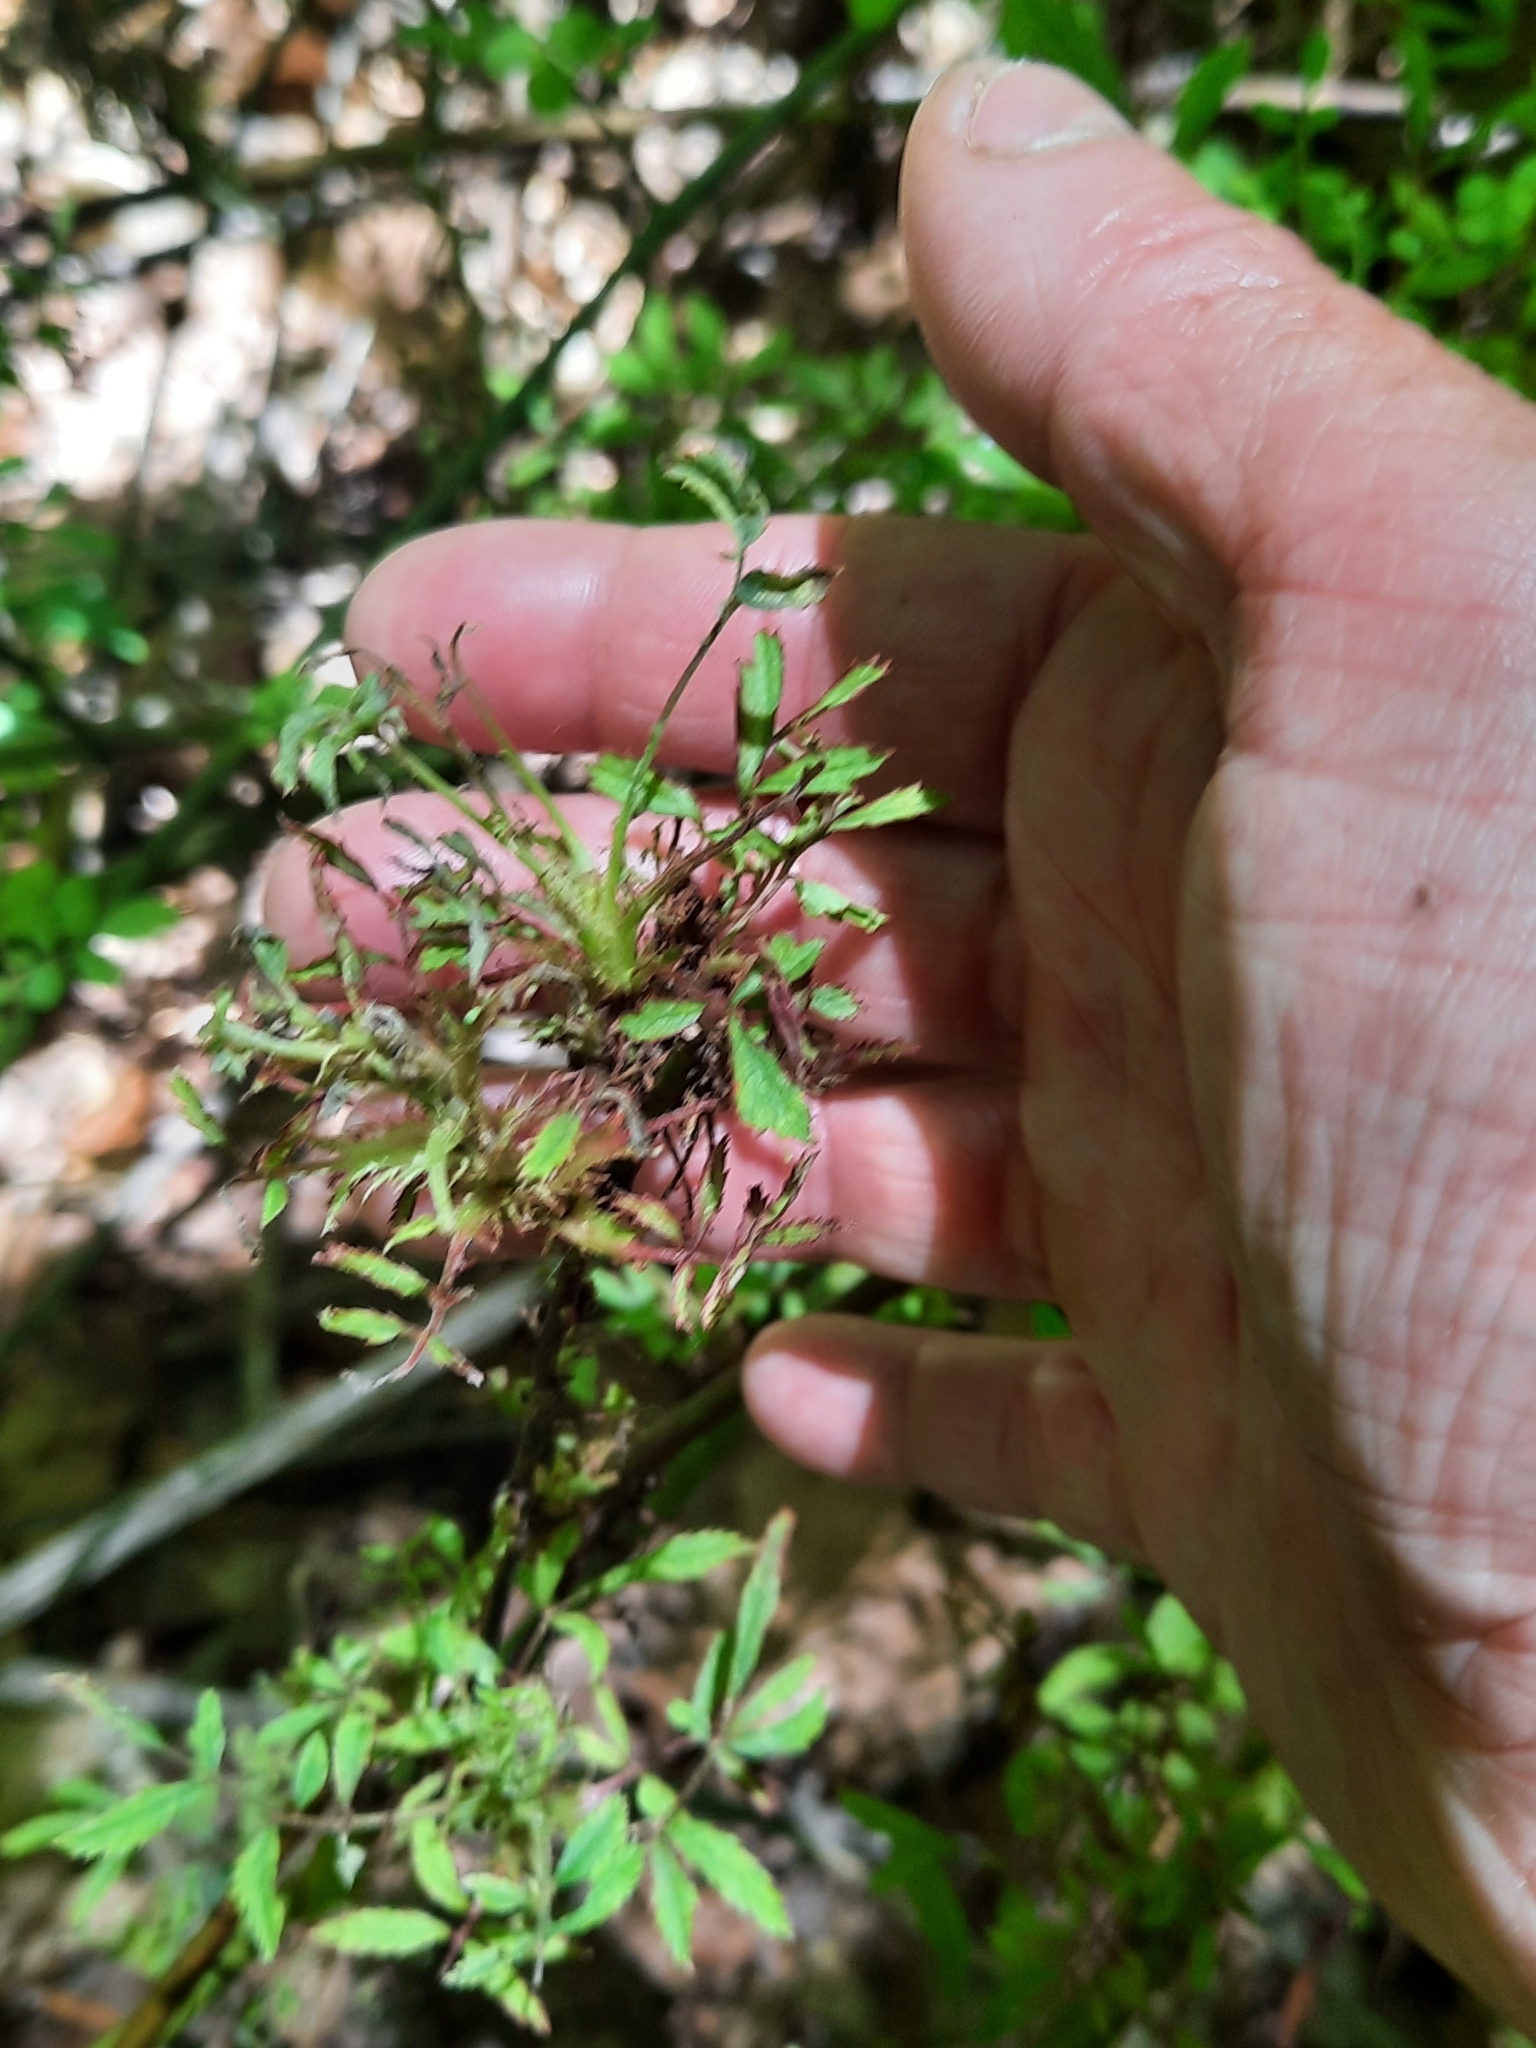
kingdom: Viruses
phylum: Negarnaviricota
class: Ellioviricetes
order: Bunyavirales
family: Fimoviridae
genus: Emaravirus
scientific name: Emaravirus rosae
